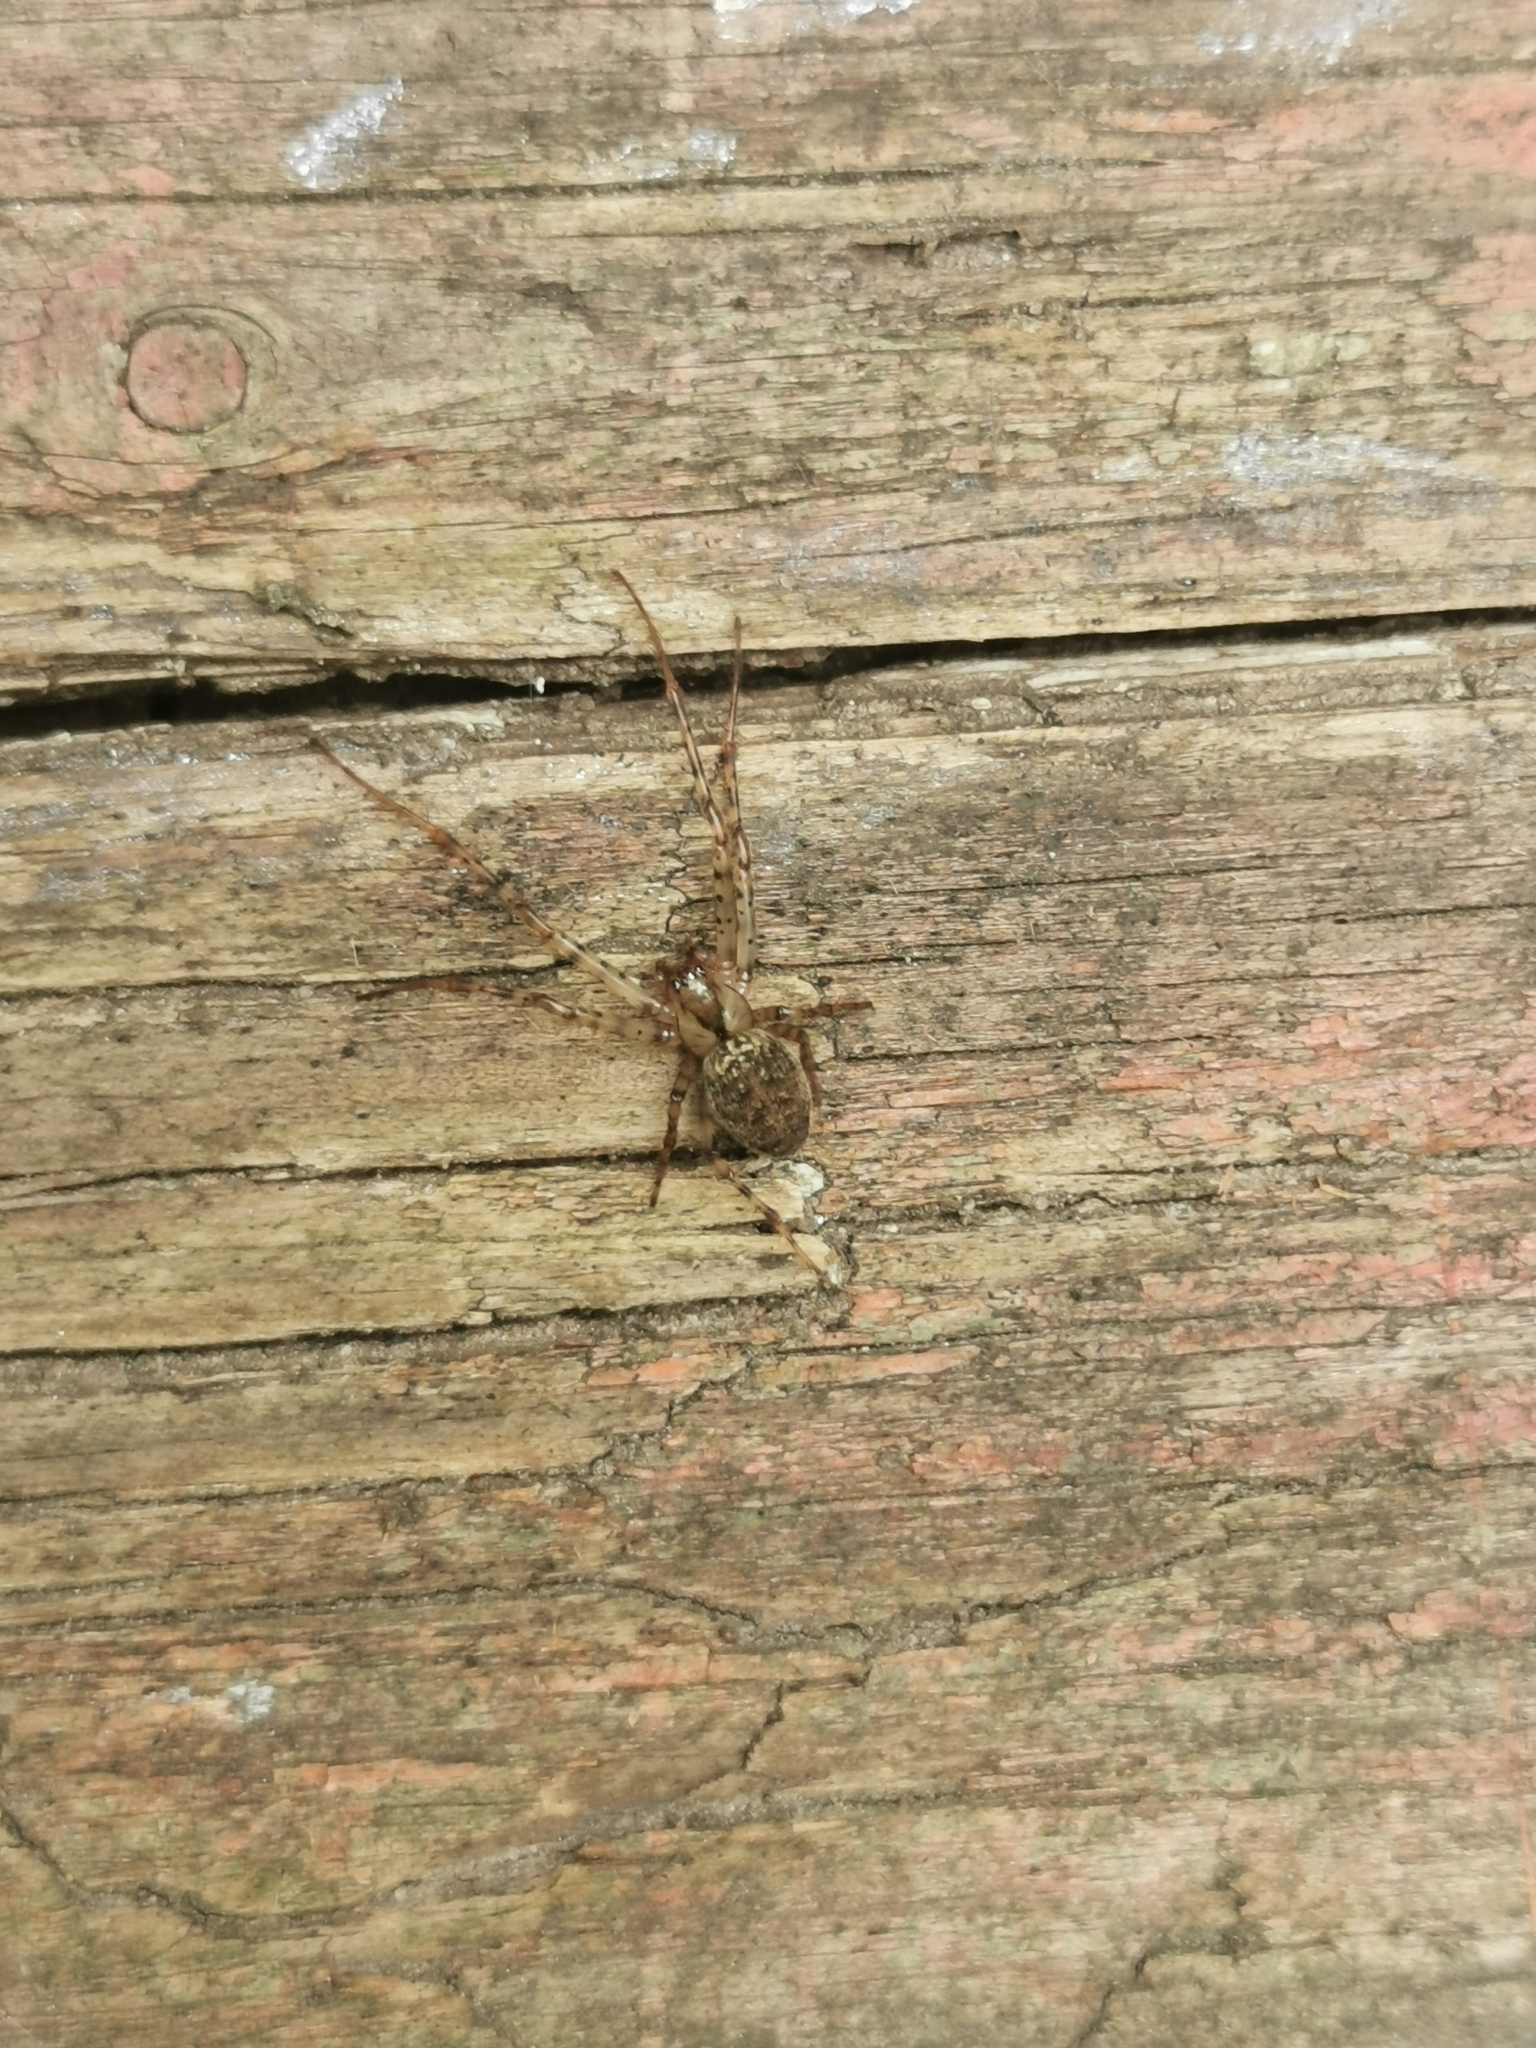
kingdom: Animalia
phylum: Arthropoda
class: Arachnida
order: Araneae
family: Tetragnathidae
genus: Metellina
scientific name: Metellina merianae
